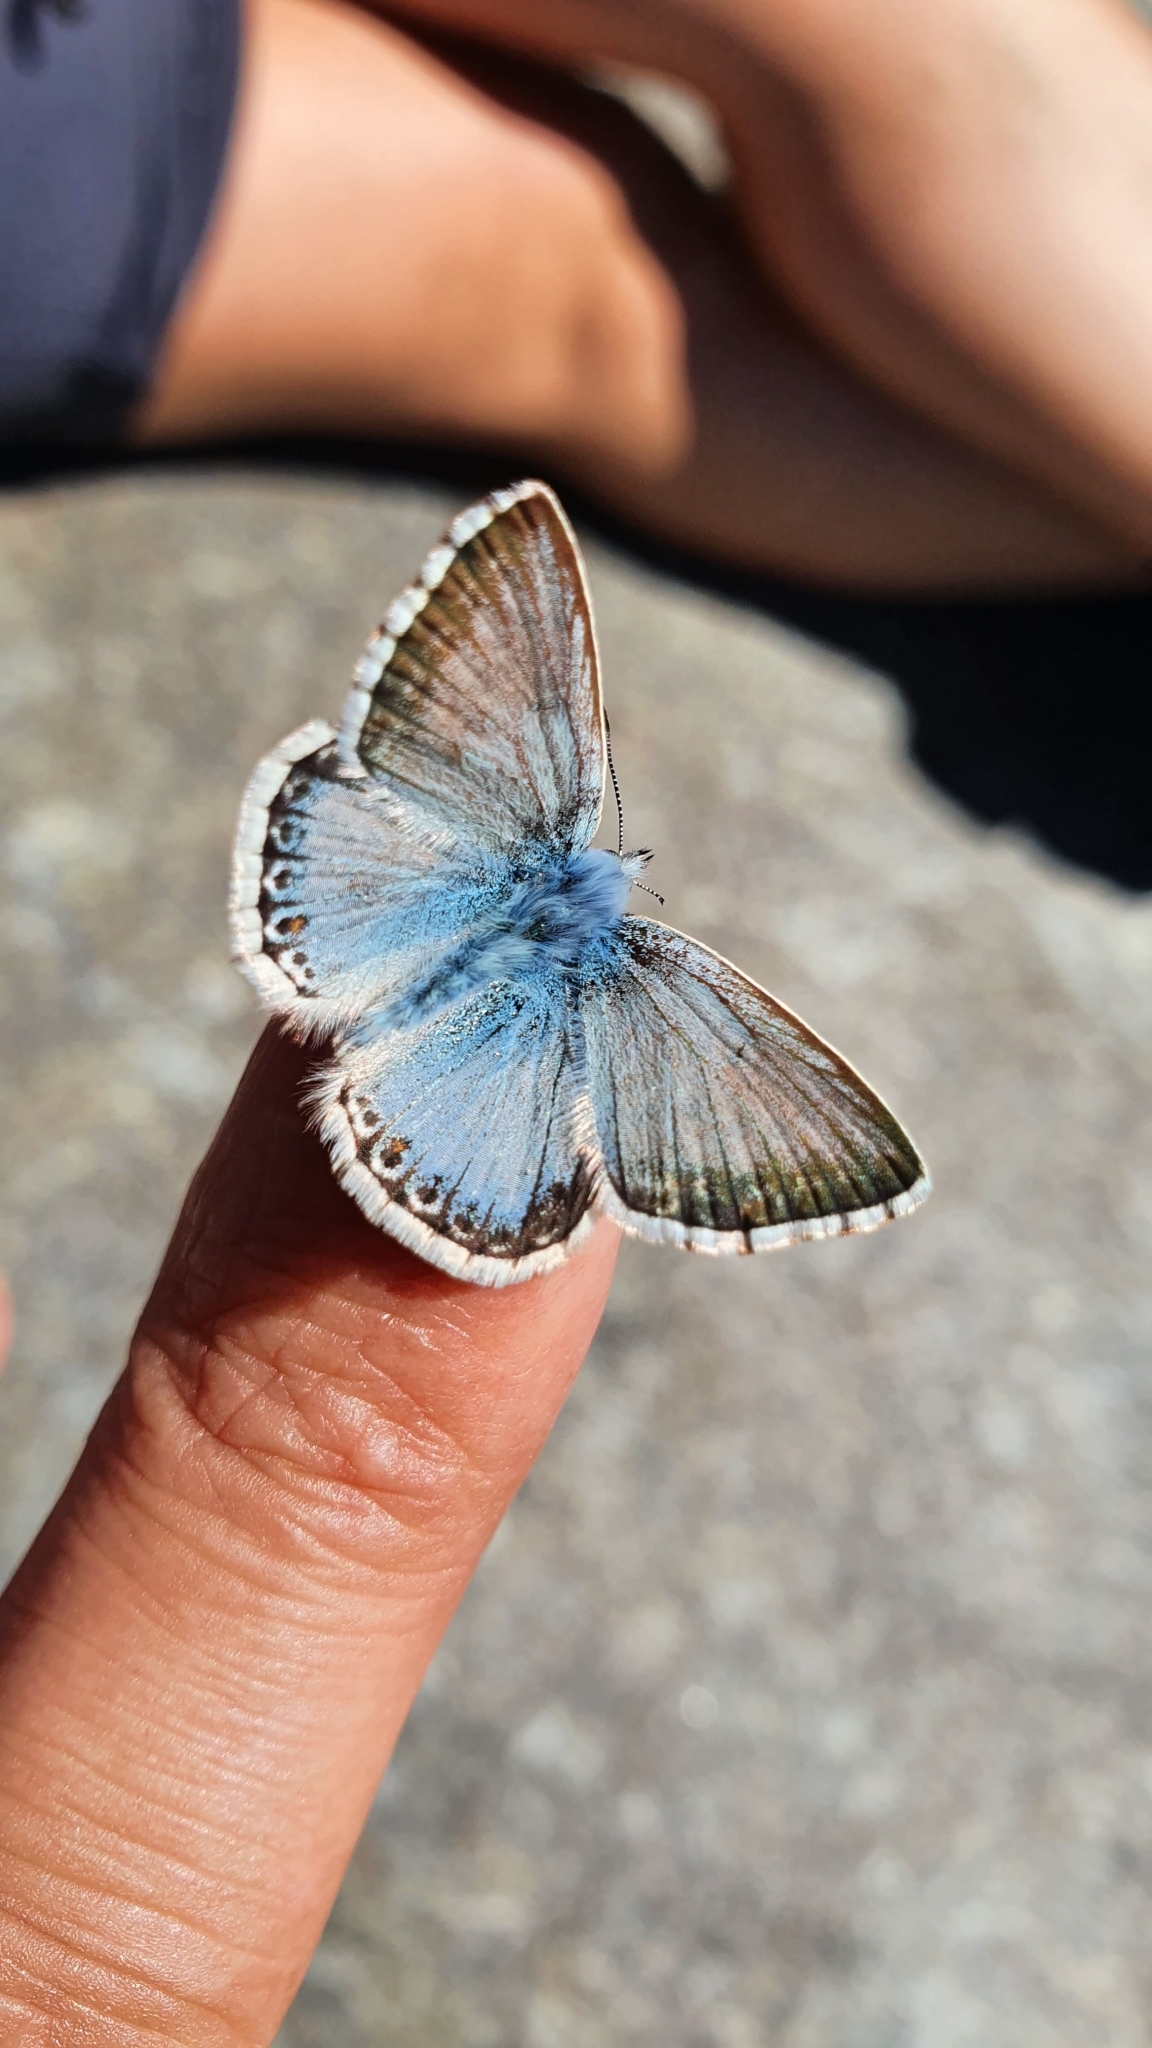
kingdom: Animalia
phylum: Arthropoda
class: Insecta
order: Lepidoptera
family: Lycaenidae
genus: Lysandra
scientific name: Lysandra coridon
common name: Chalkhill blue
